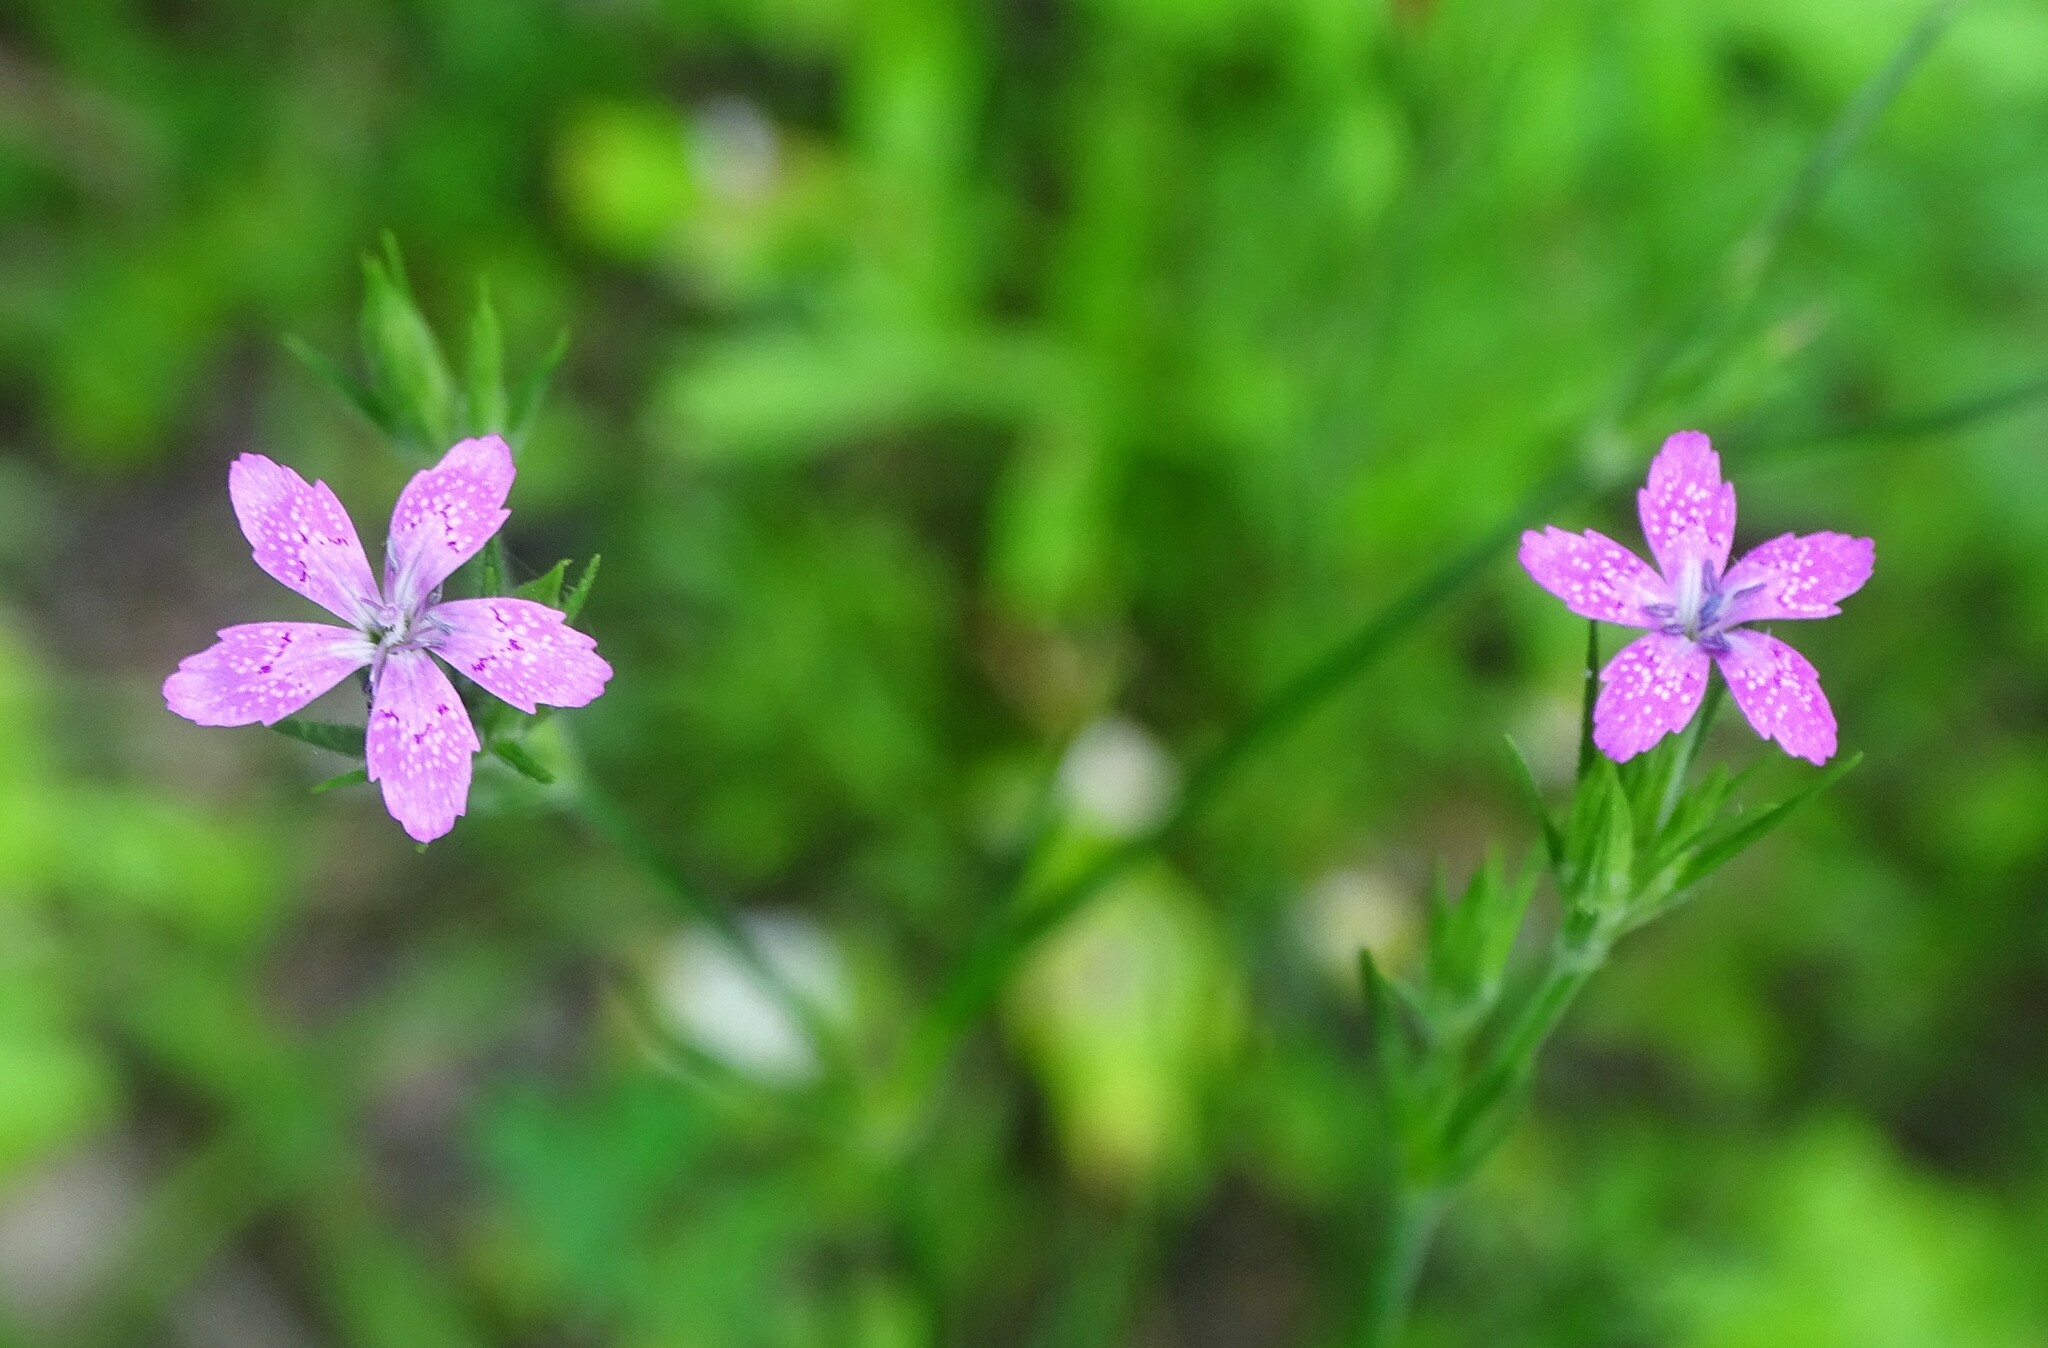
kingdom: Plantae
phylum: Tracheophyta
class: Magnoliopsida
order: Caryophyllales
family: Caryophyllaceae
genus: Dianthus
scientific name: Dianthus armeria
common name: Deptford pink
